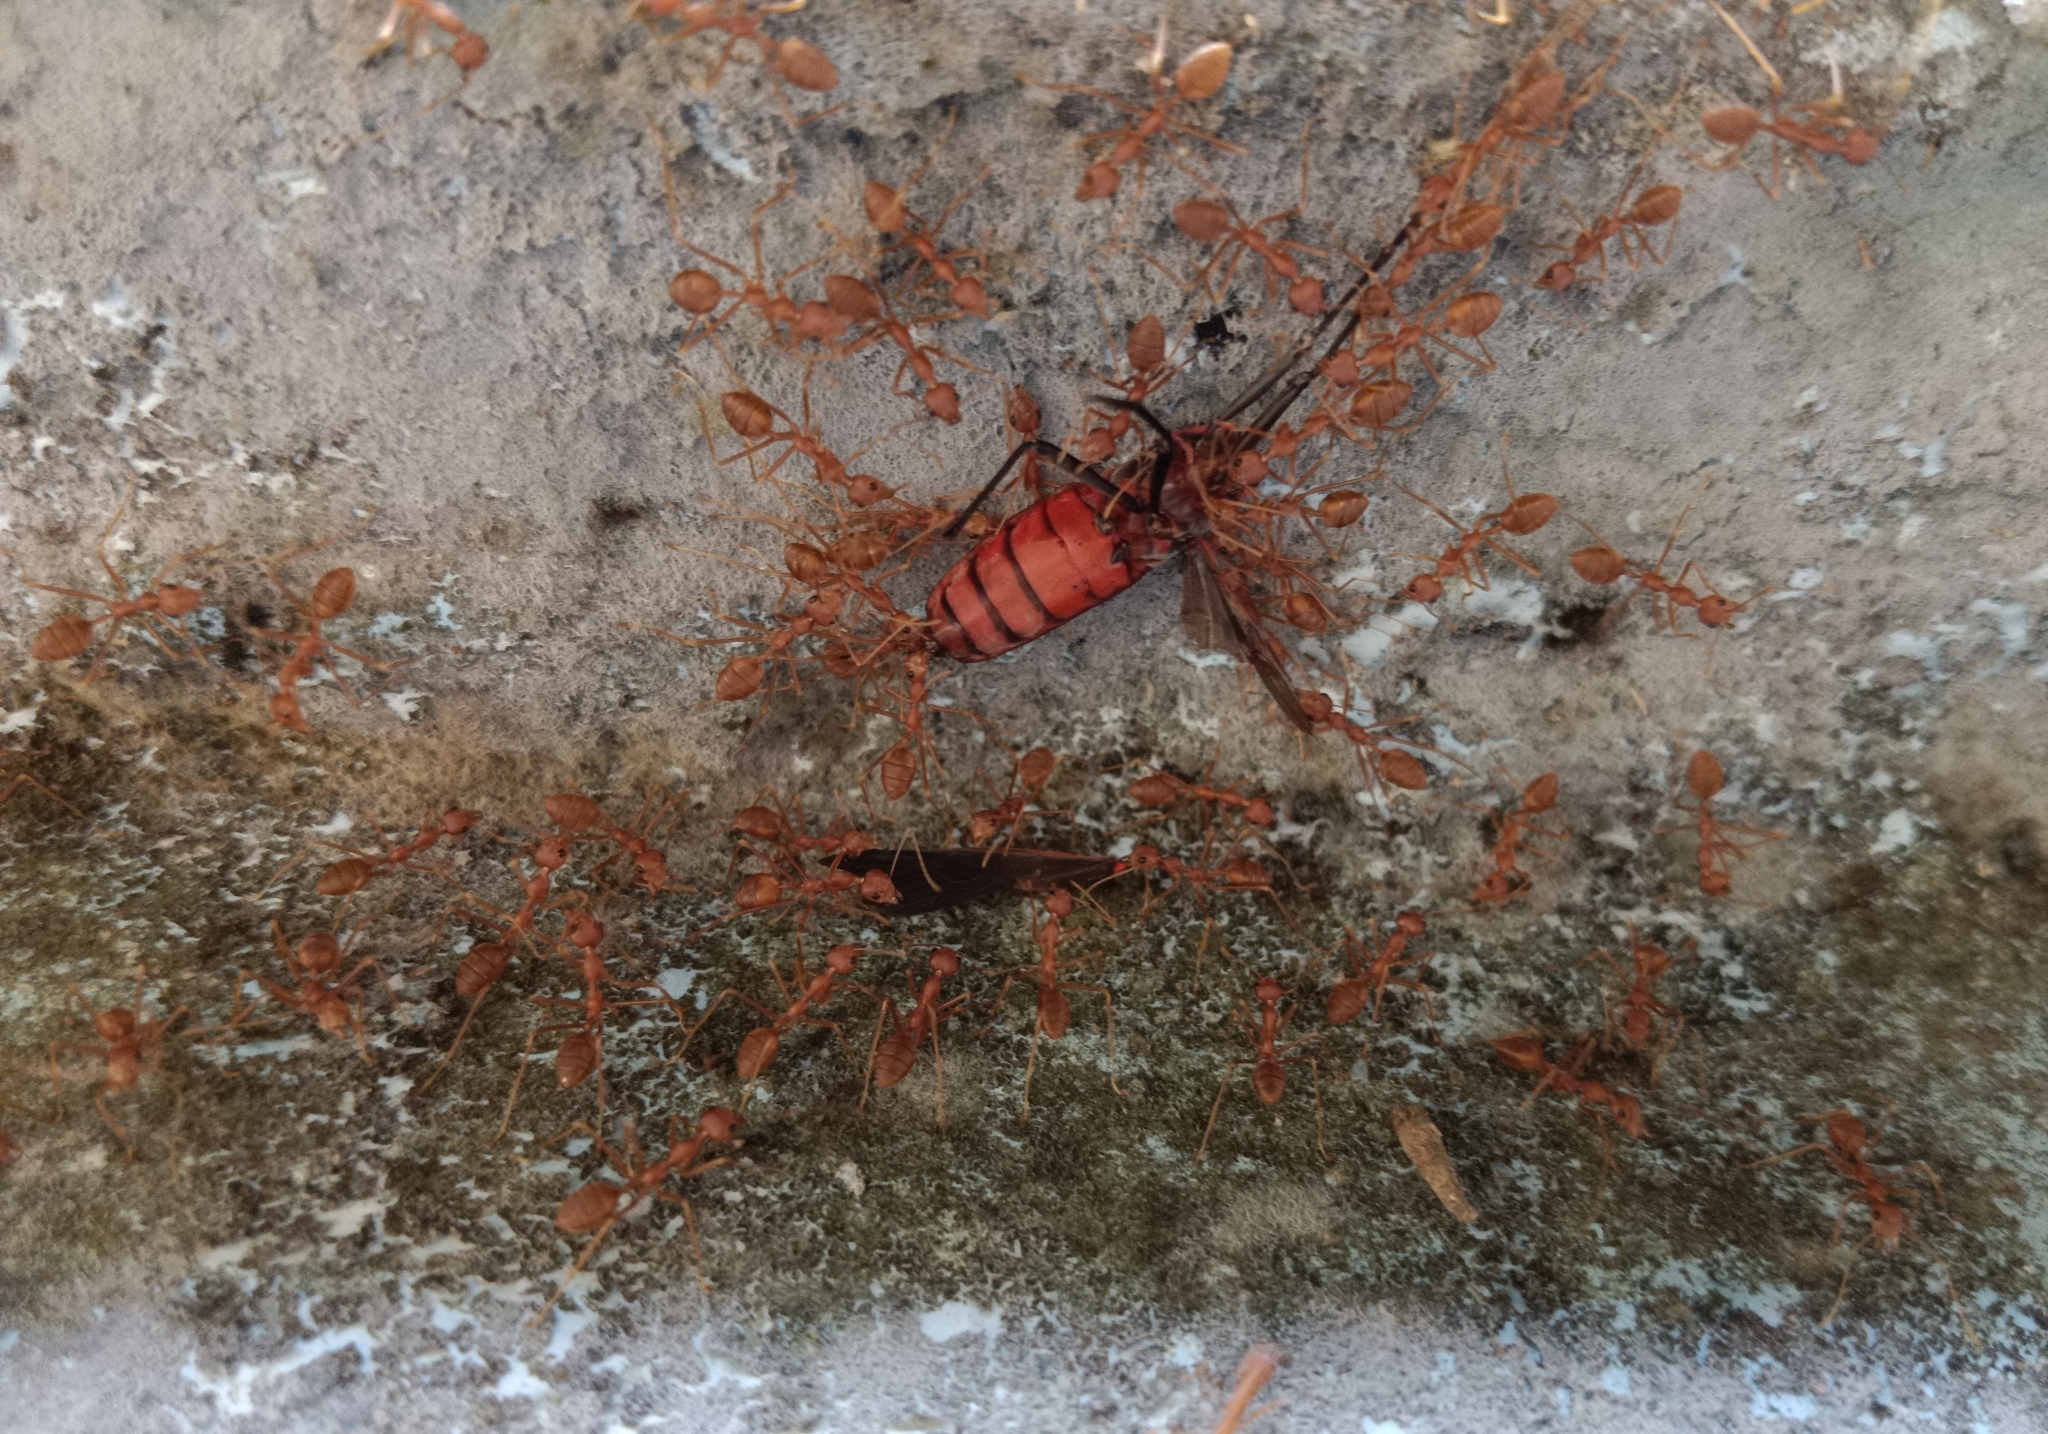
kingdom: Animalia
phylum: Arthropoda
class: Insecta
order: Hymenoptera
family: Formicidae
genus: Oecophylla
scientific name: Oecophylla smaragdina
